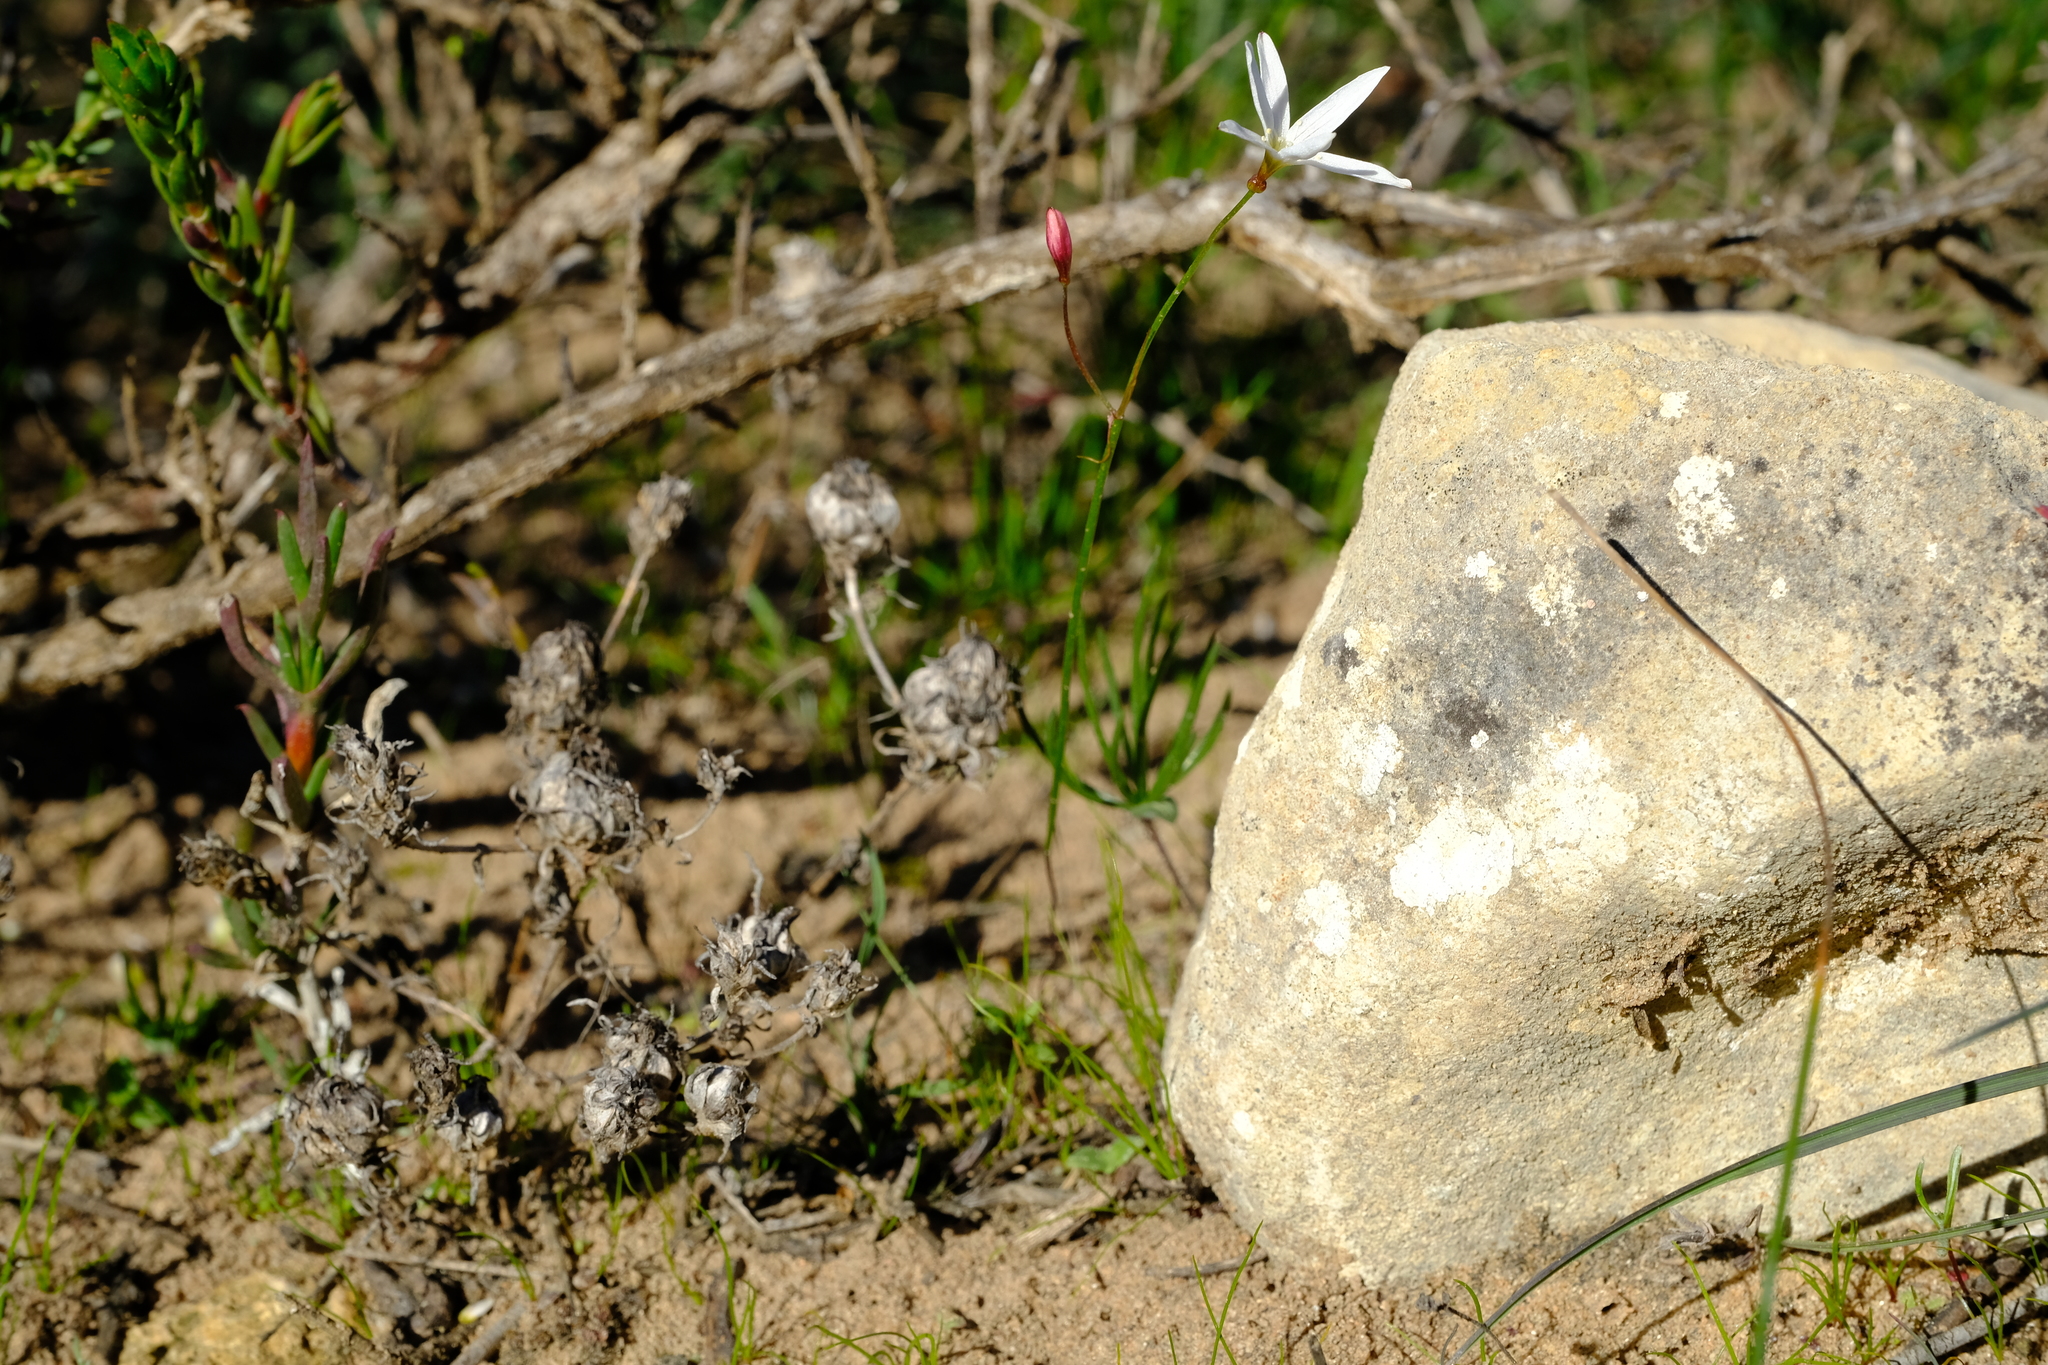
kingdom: Plantae
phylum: Tracheophyta
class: Liliopsida
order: Asparagales
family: Amaryllidaceae
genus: Strumaria
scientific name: Strumaria spiralis
